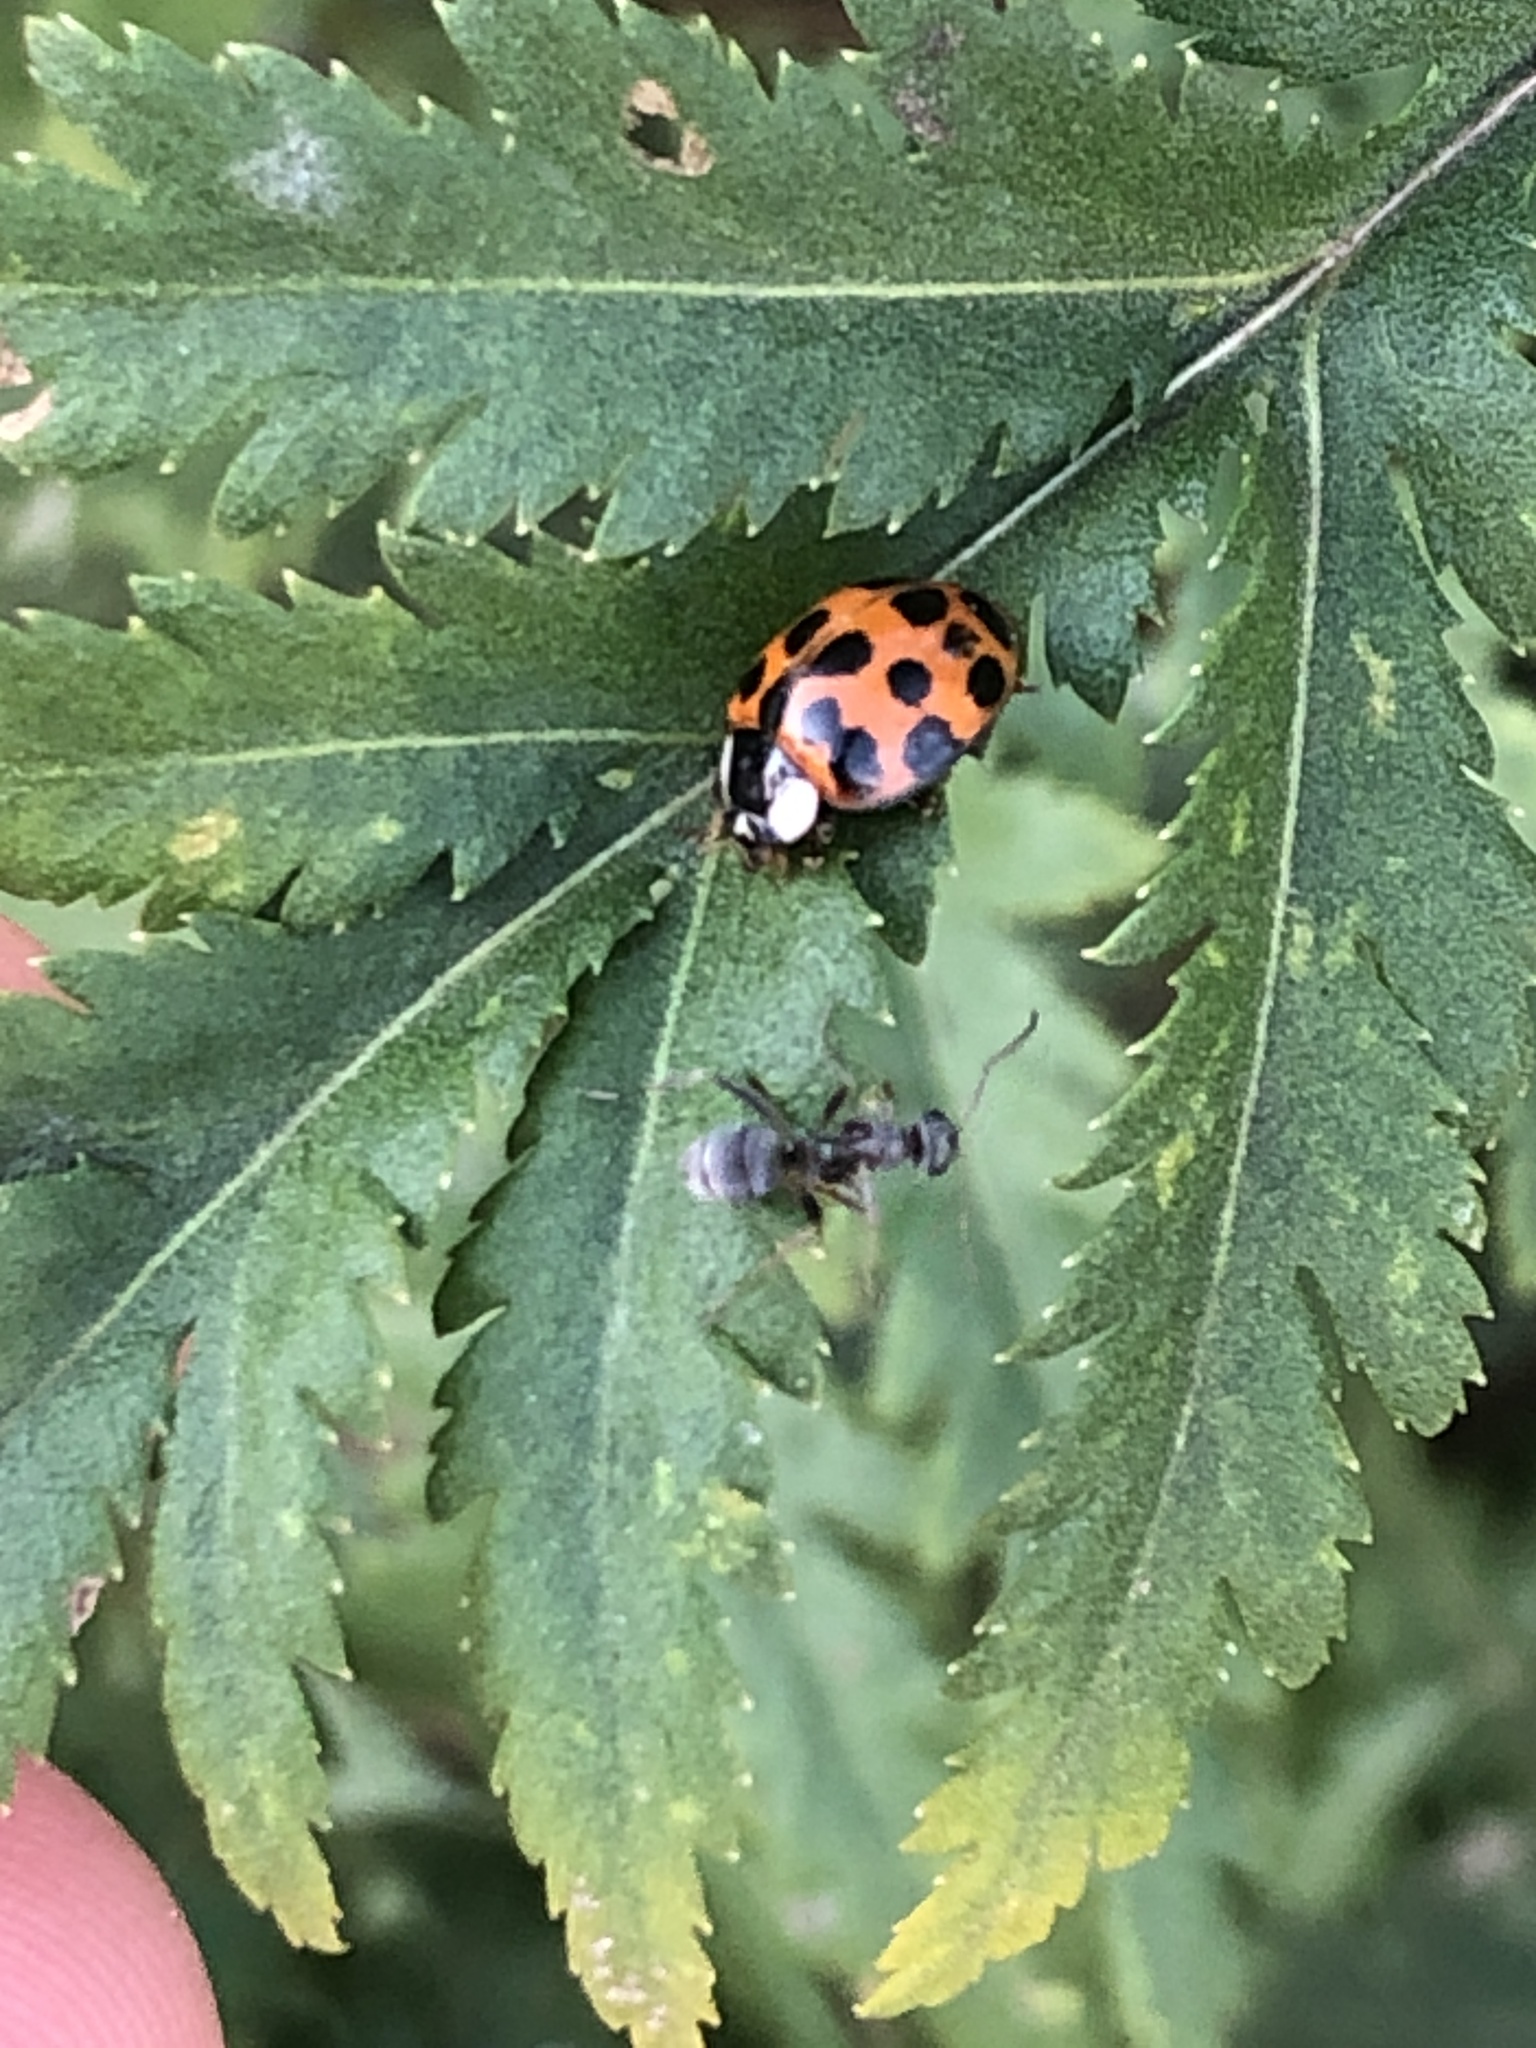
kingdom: Animalia
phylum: Arthropoda
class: Insecta
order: Coleoptera
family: Coccinellidae
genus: Harmonia
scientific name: Harmonia axyridis
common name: Harlequin ladybird
